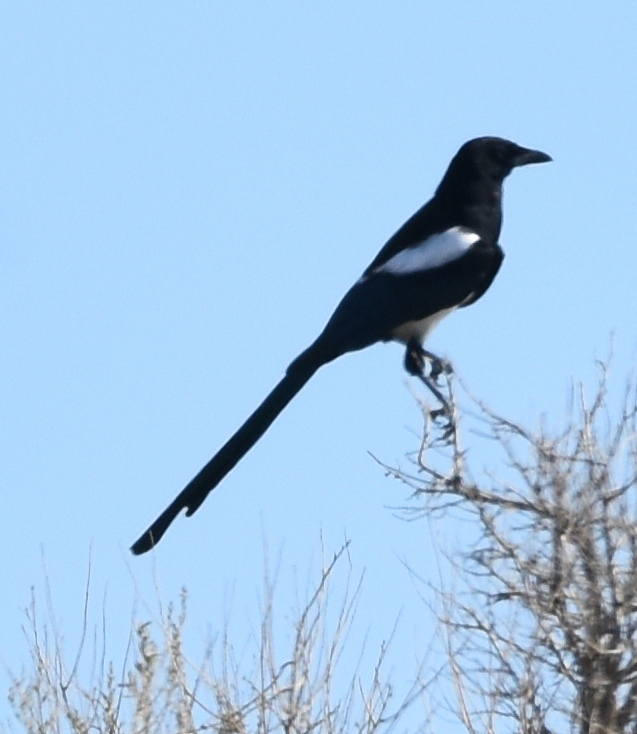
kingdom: Animalia
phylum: Chordata
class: Aves
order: Passeriformes
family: Corvidae
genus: Pica
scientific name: Pica hudsonia
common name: Black-billed magpie
